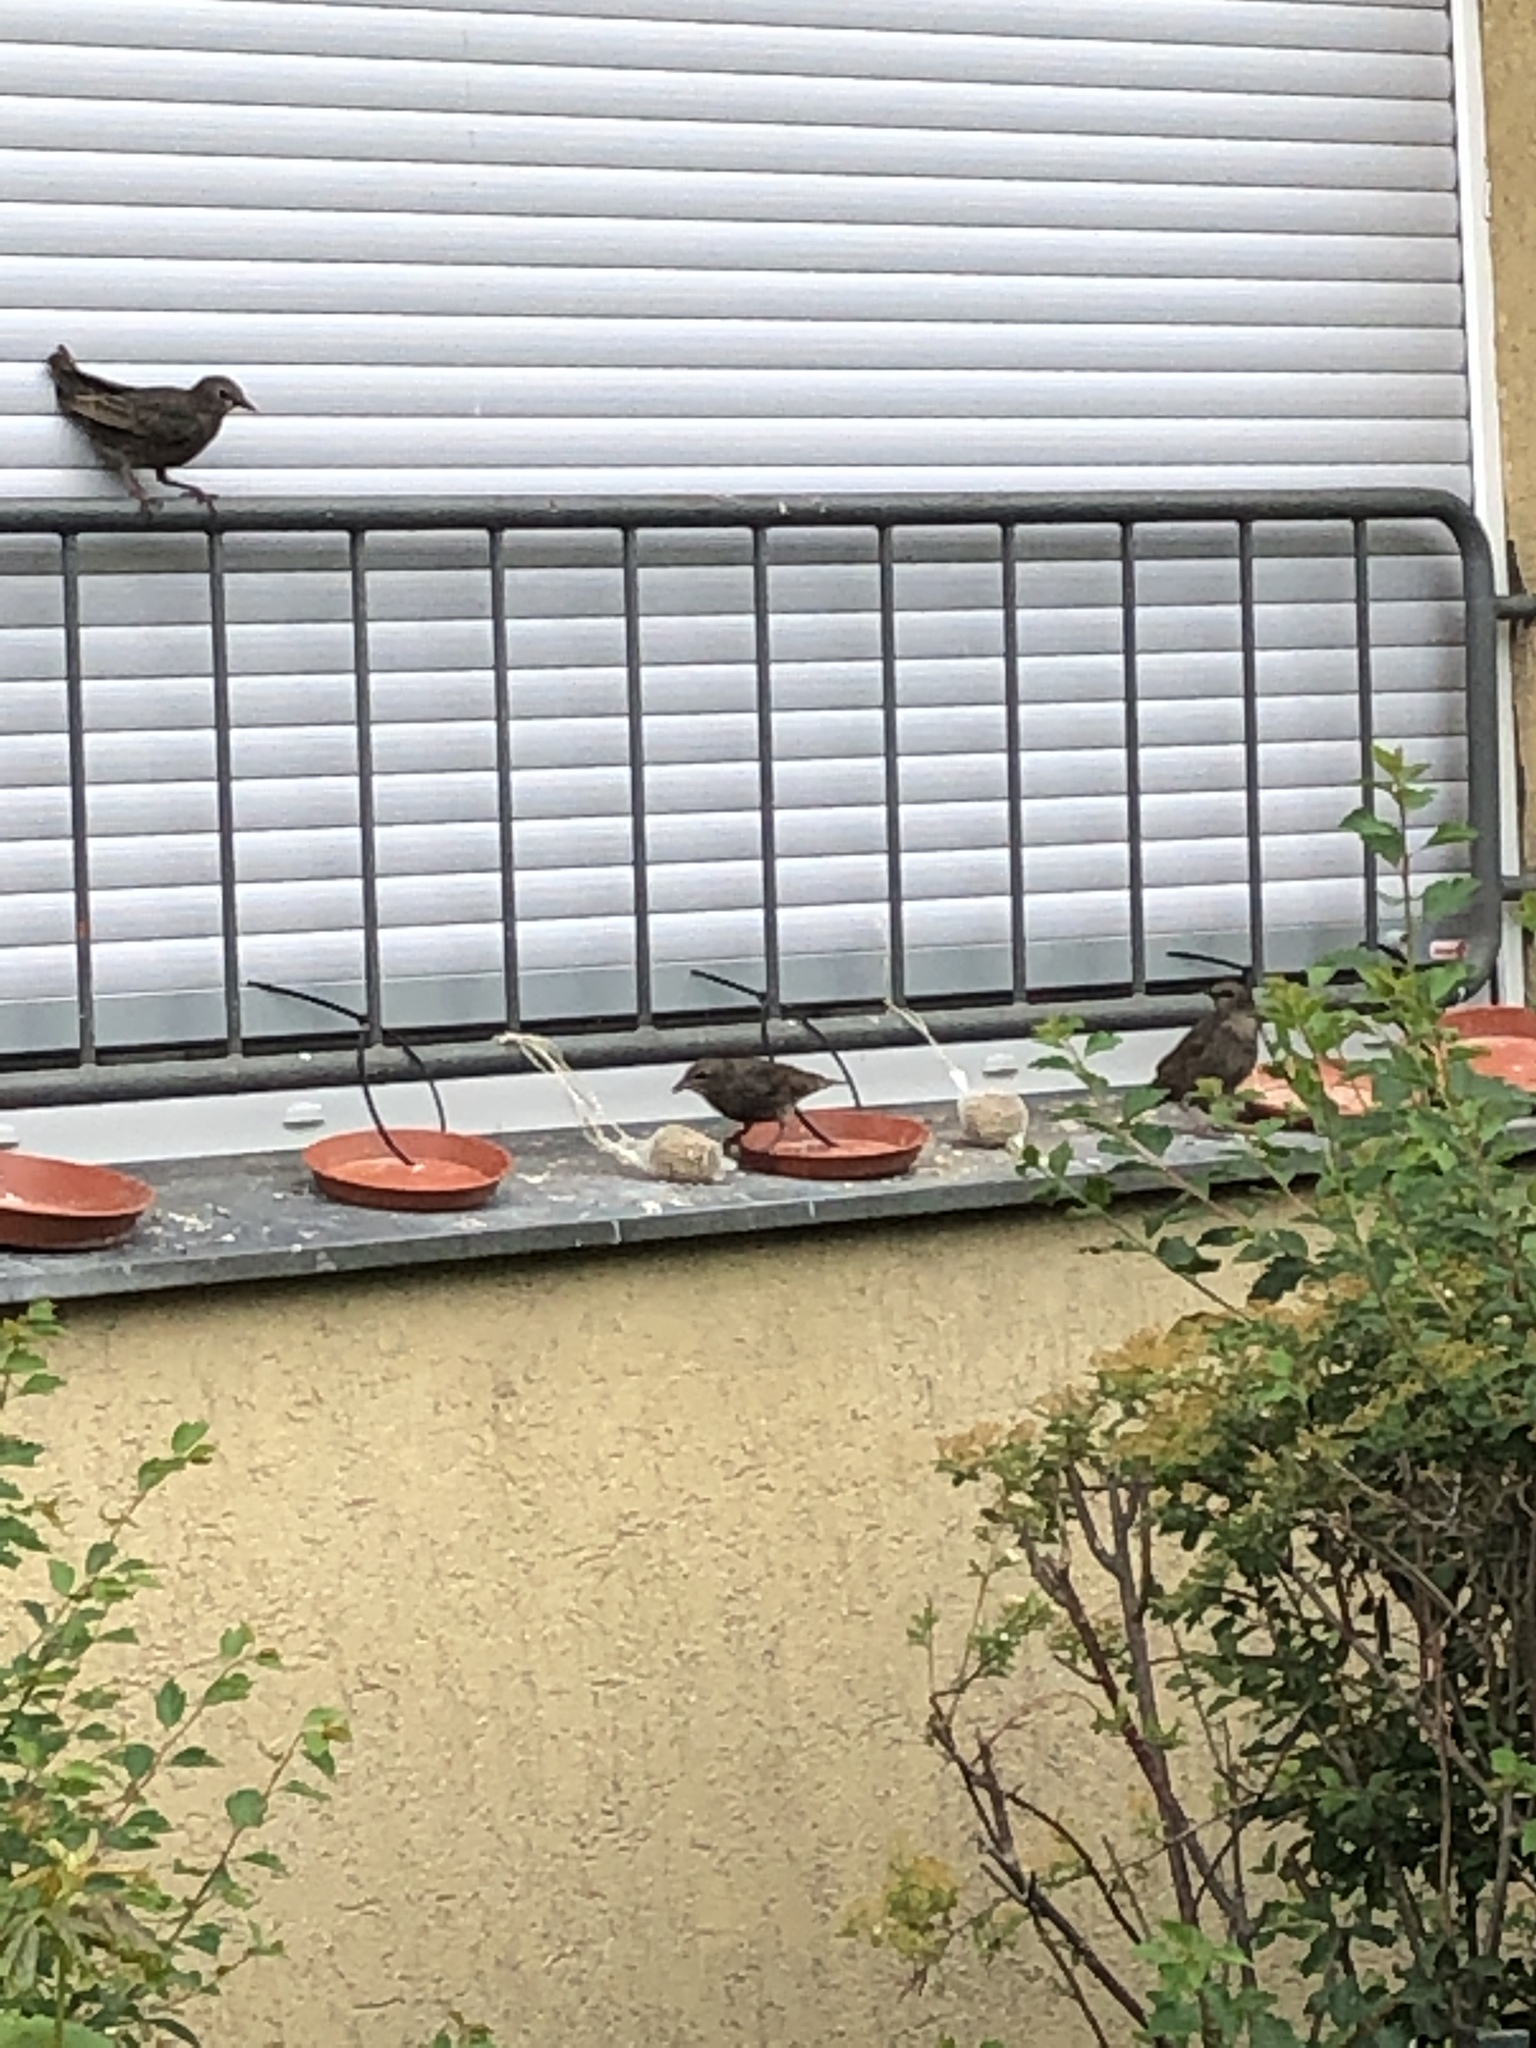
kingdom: Animalia
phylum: Chordata
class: Aves
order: Passeriformes
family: Sturnidae
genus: Sturnus
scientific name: Sturnus vulgaris
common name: Common starling
